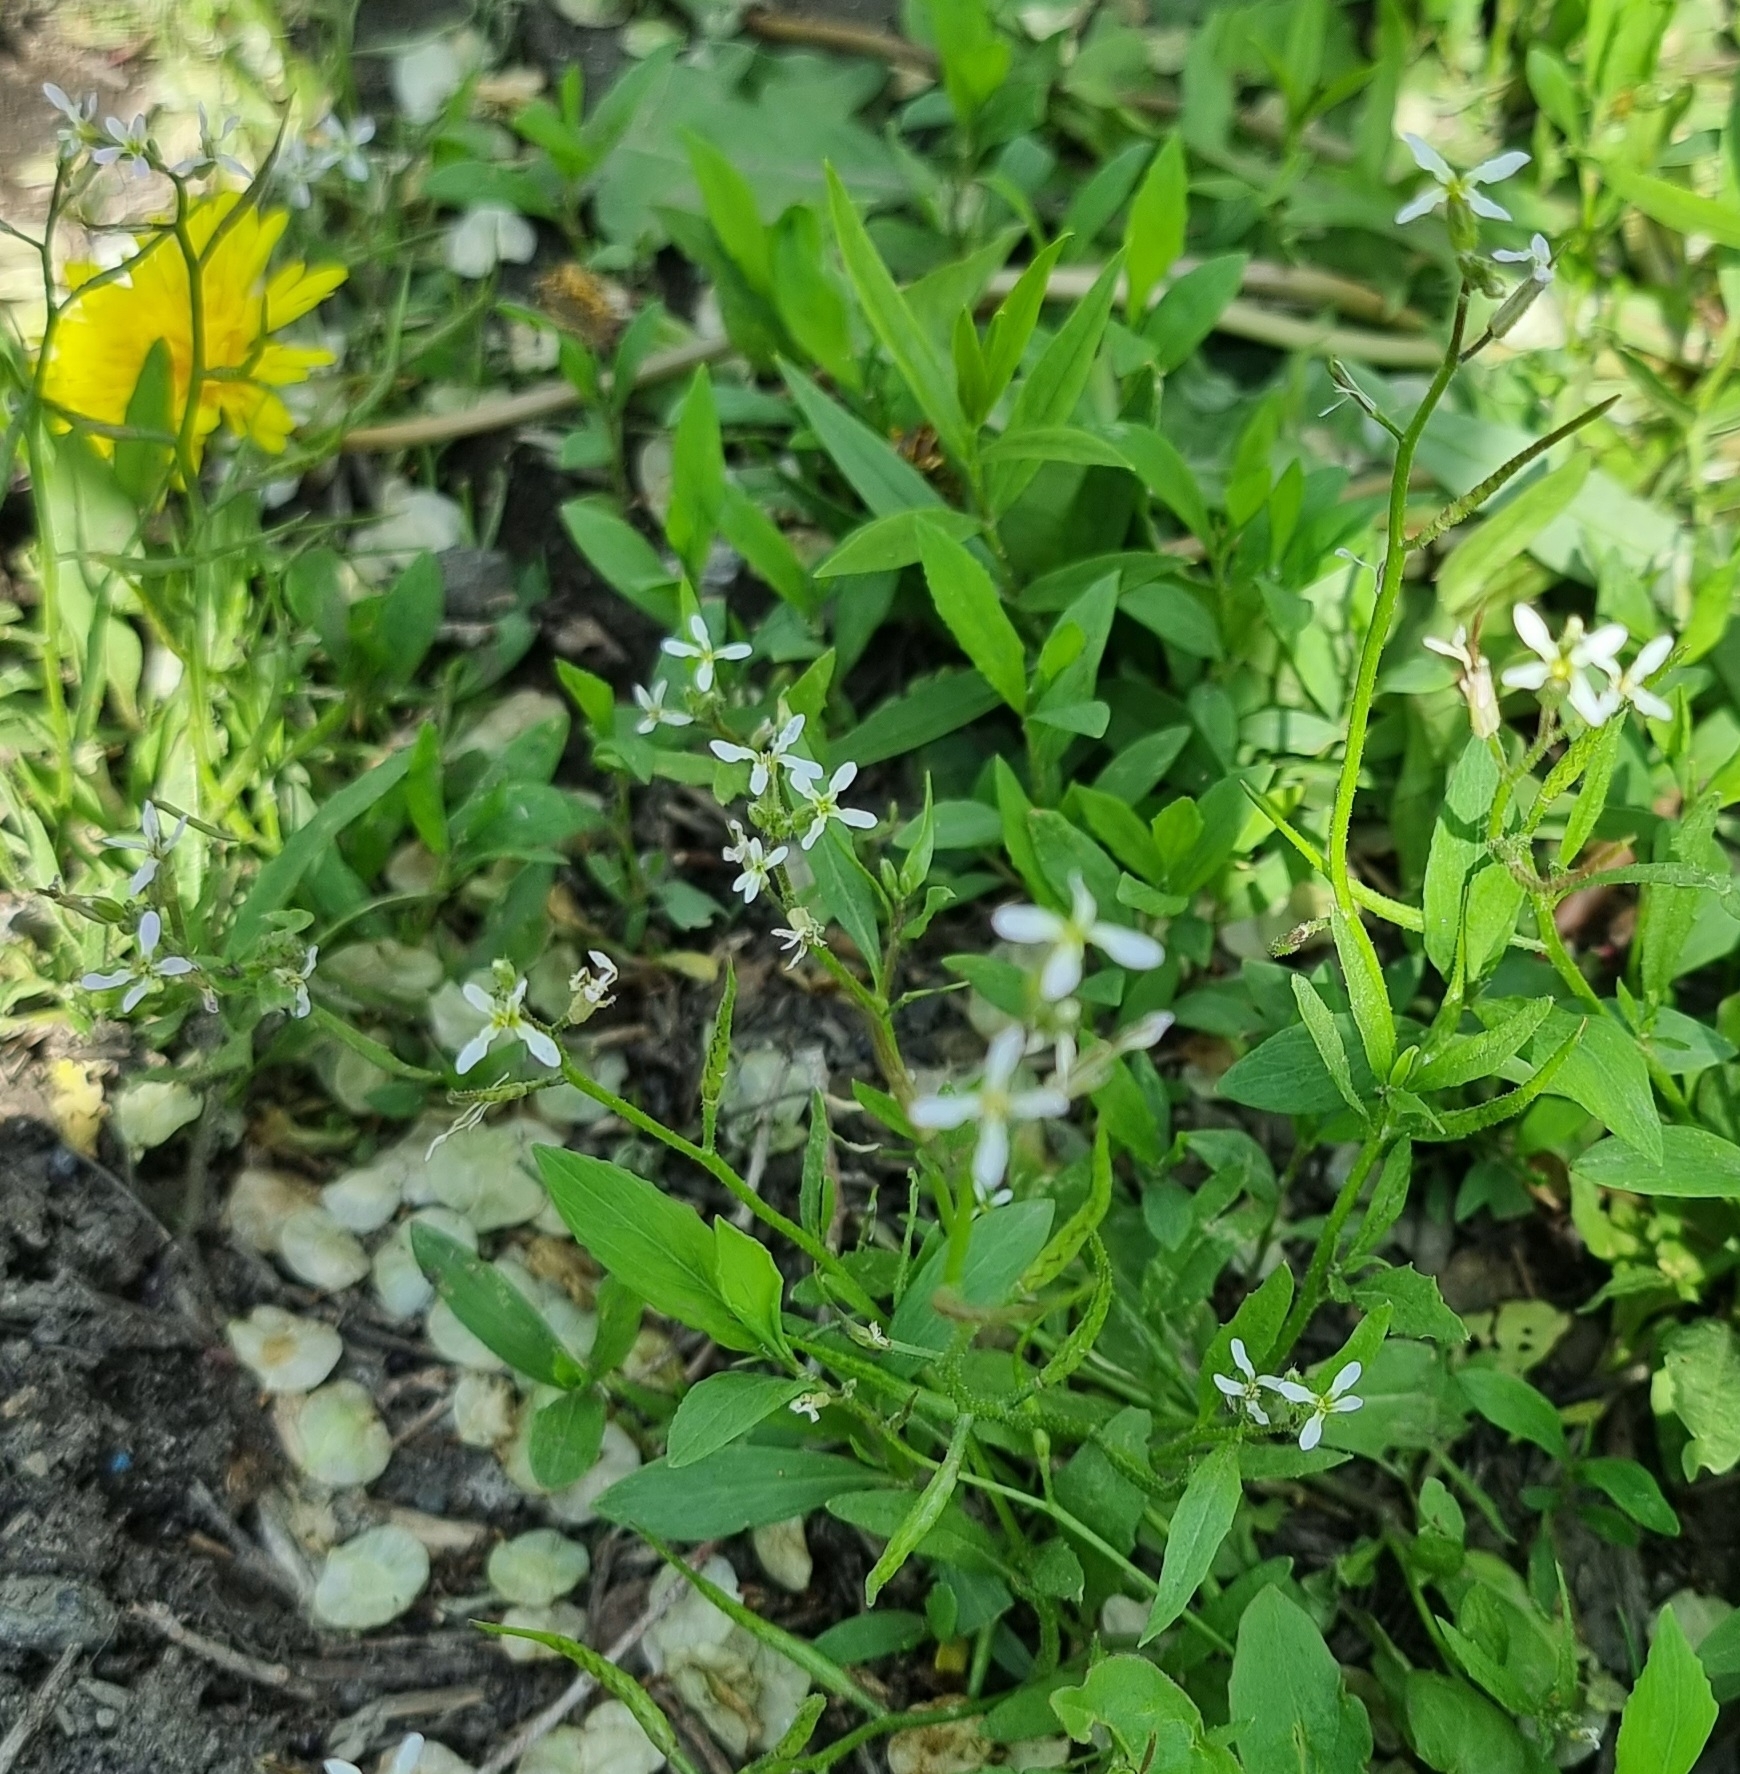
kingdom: Plantae
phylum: Tracheophyta
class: Magnoliopsida
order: Brassicales
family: Brassicaceae
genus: Chorispora
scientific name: Chorispora tenella
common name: Crossflower
